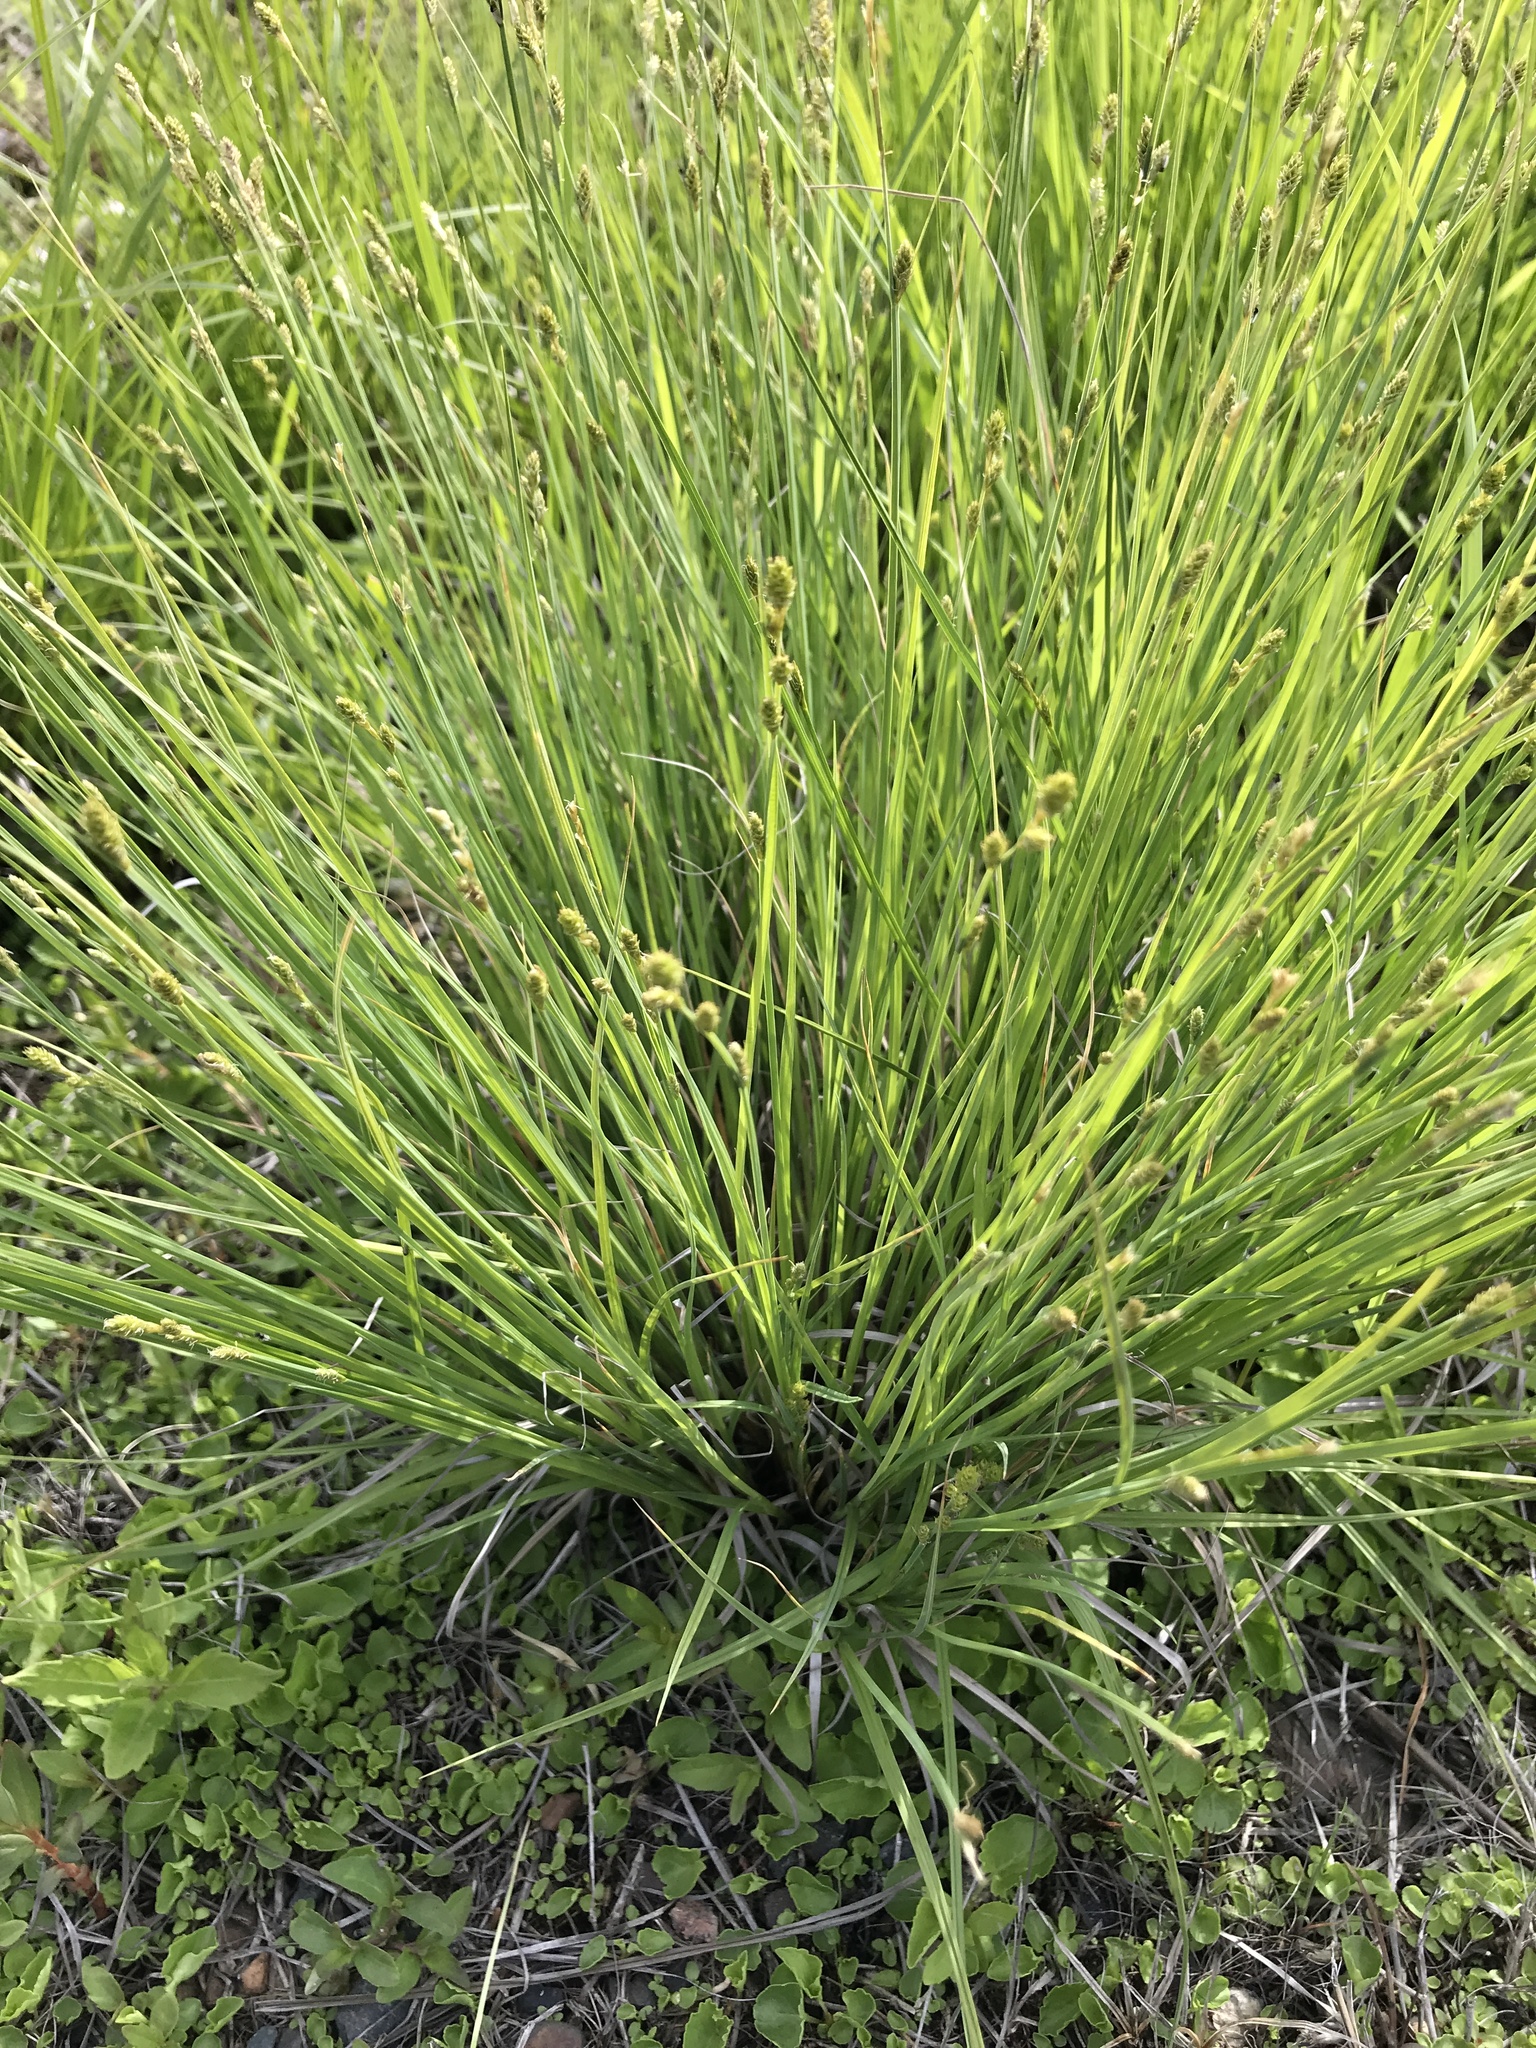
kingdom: Plantae
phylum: Tracheophyta
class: Liliopsida
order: Poales
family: Cyperaceae
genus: Carex
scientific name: Carex canescens
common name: White sedge
